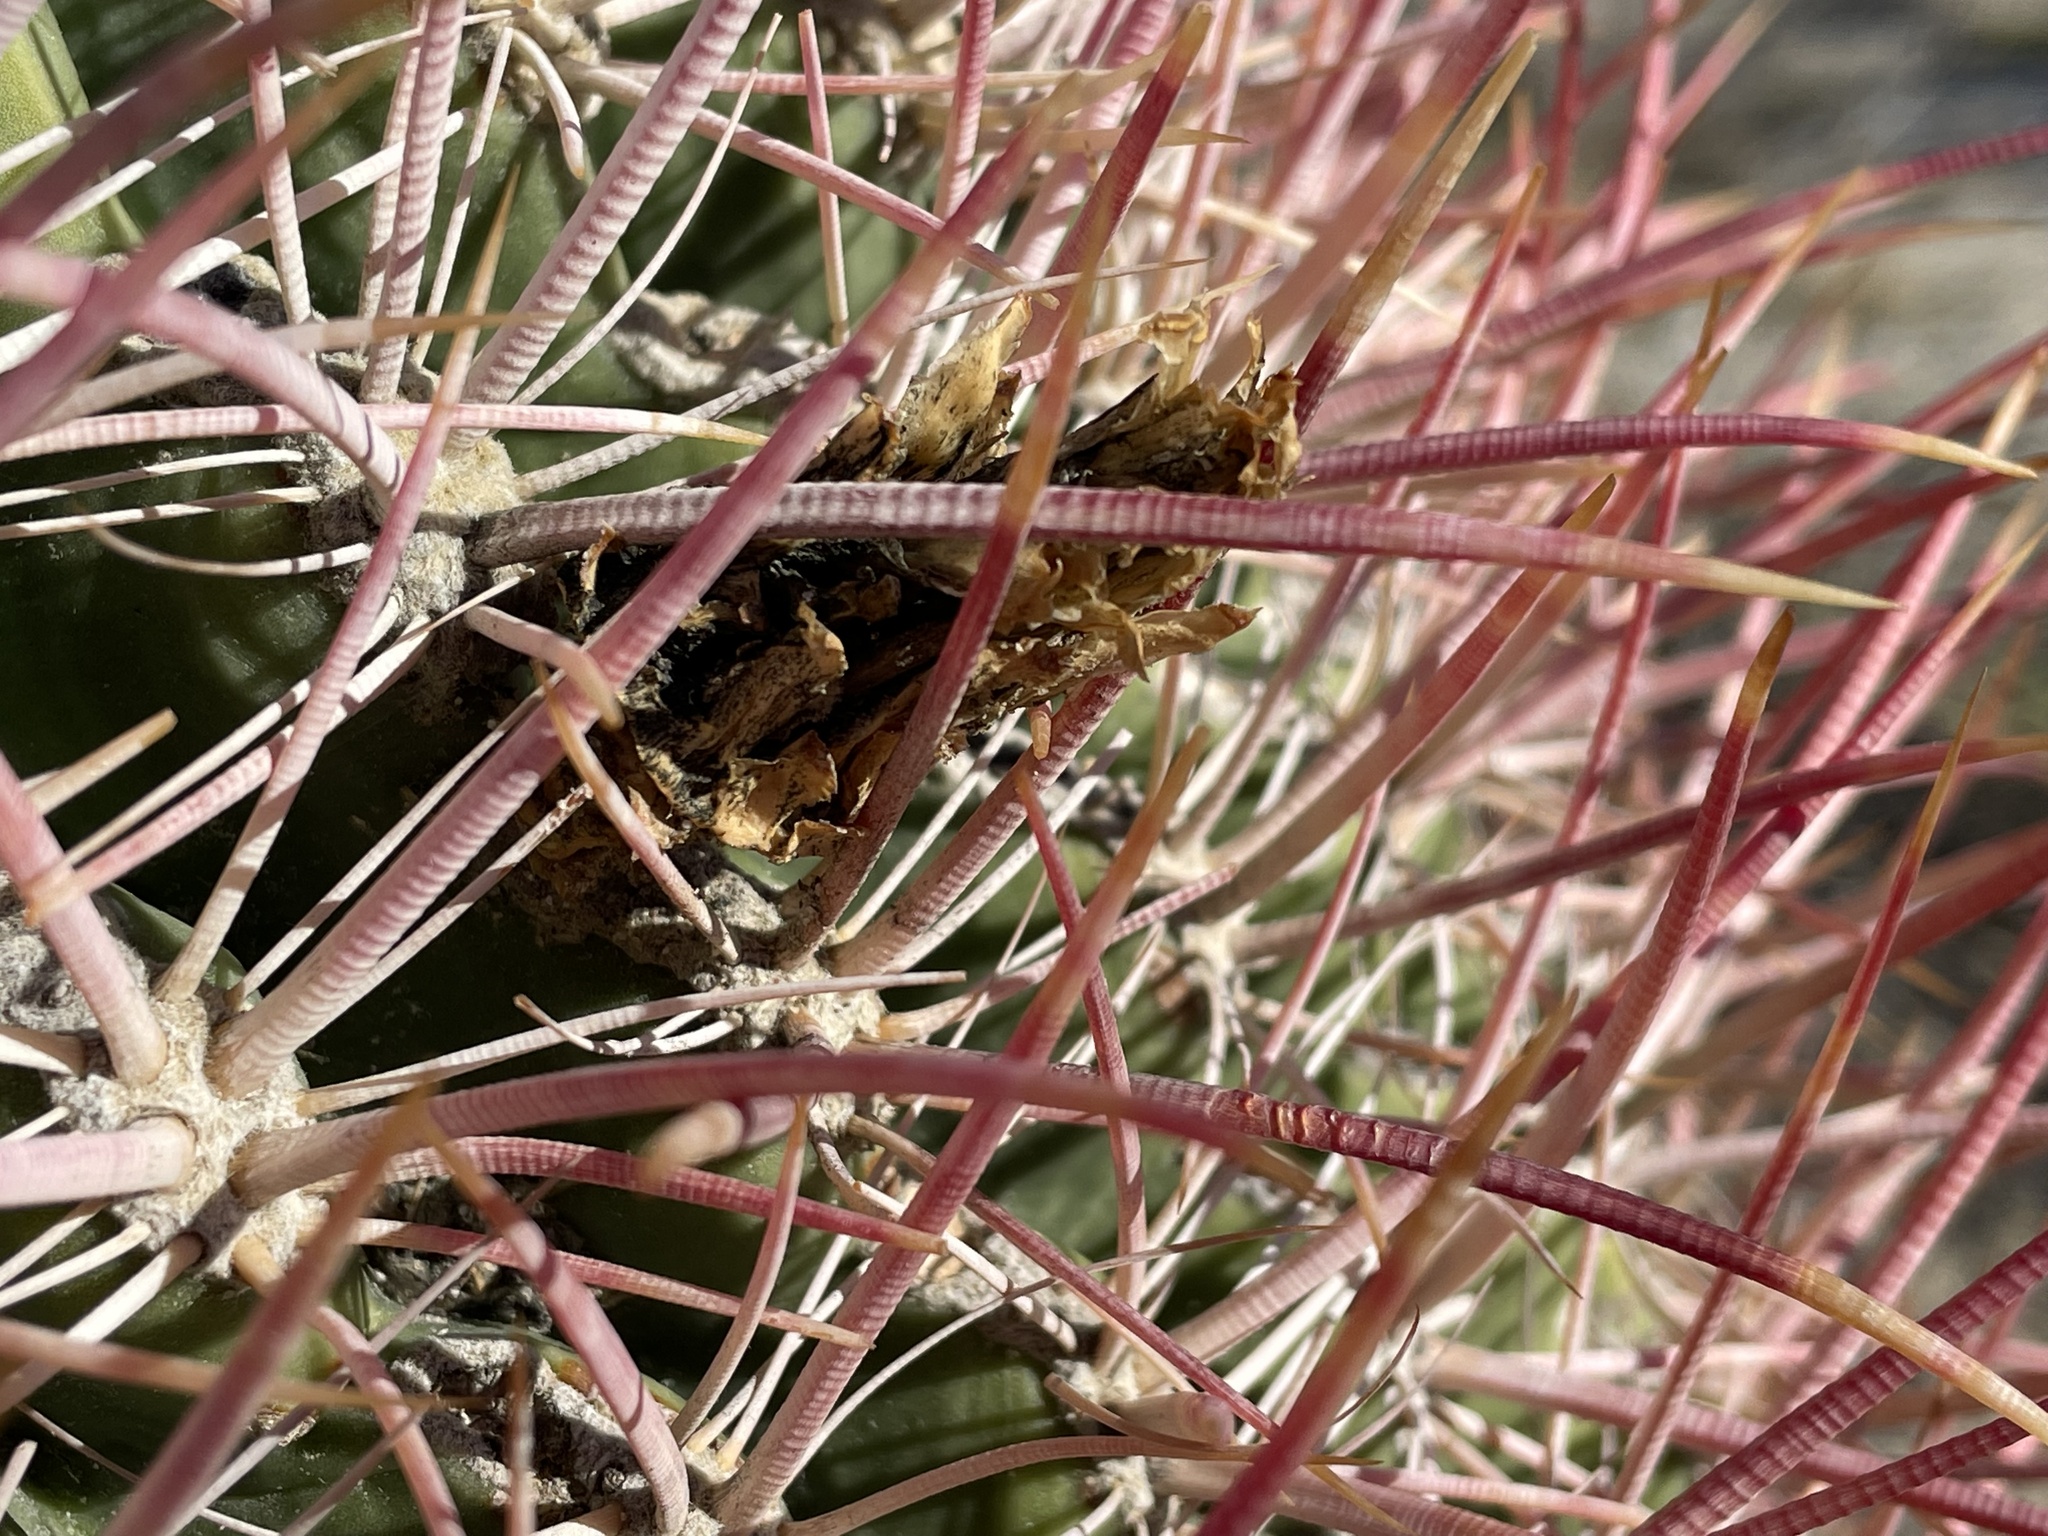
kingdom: Plantae
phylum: Tracheophyta
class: Magnoliopsida
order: Caryophyllales
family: Cactaceae
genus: Ferocactus
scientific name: Ferocactus cylindraceus
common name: California barrel cactus
